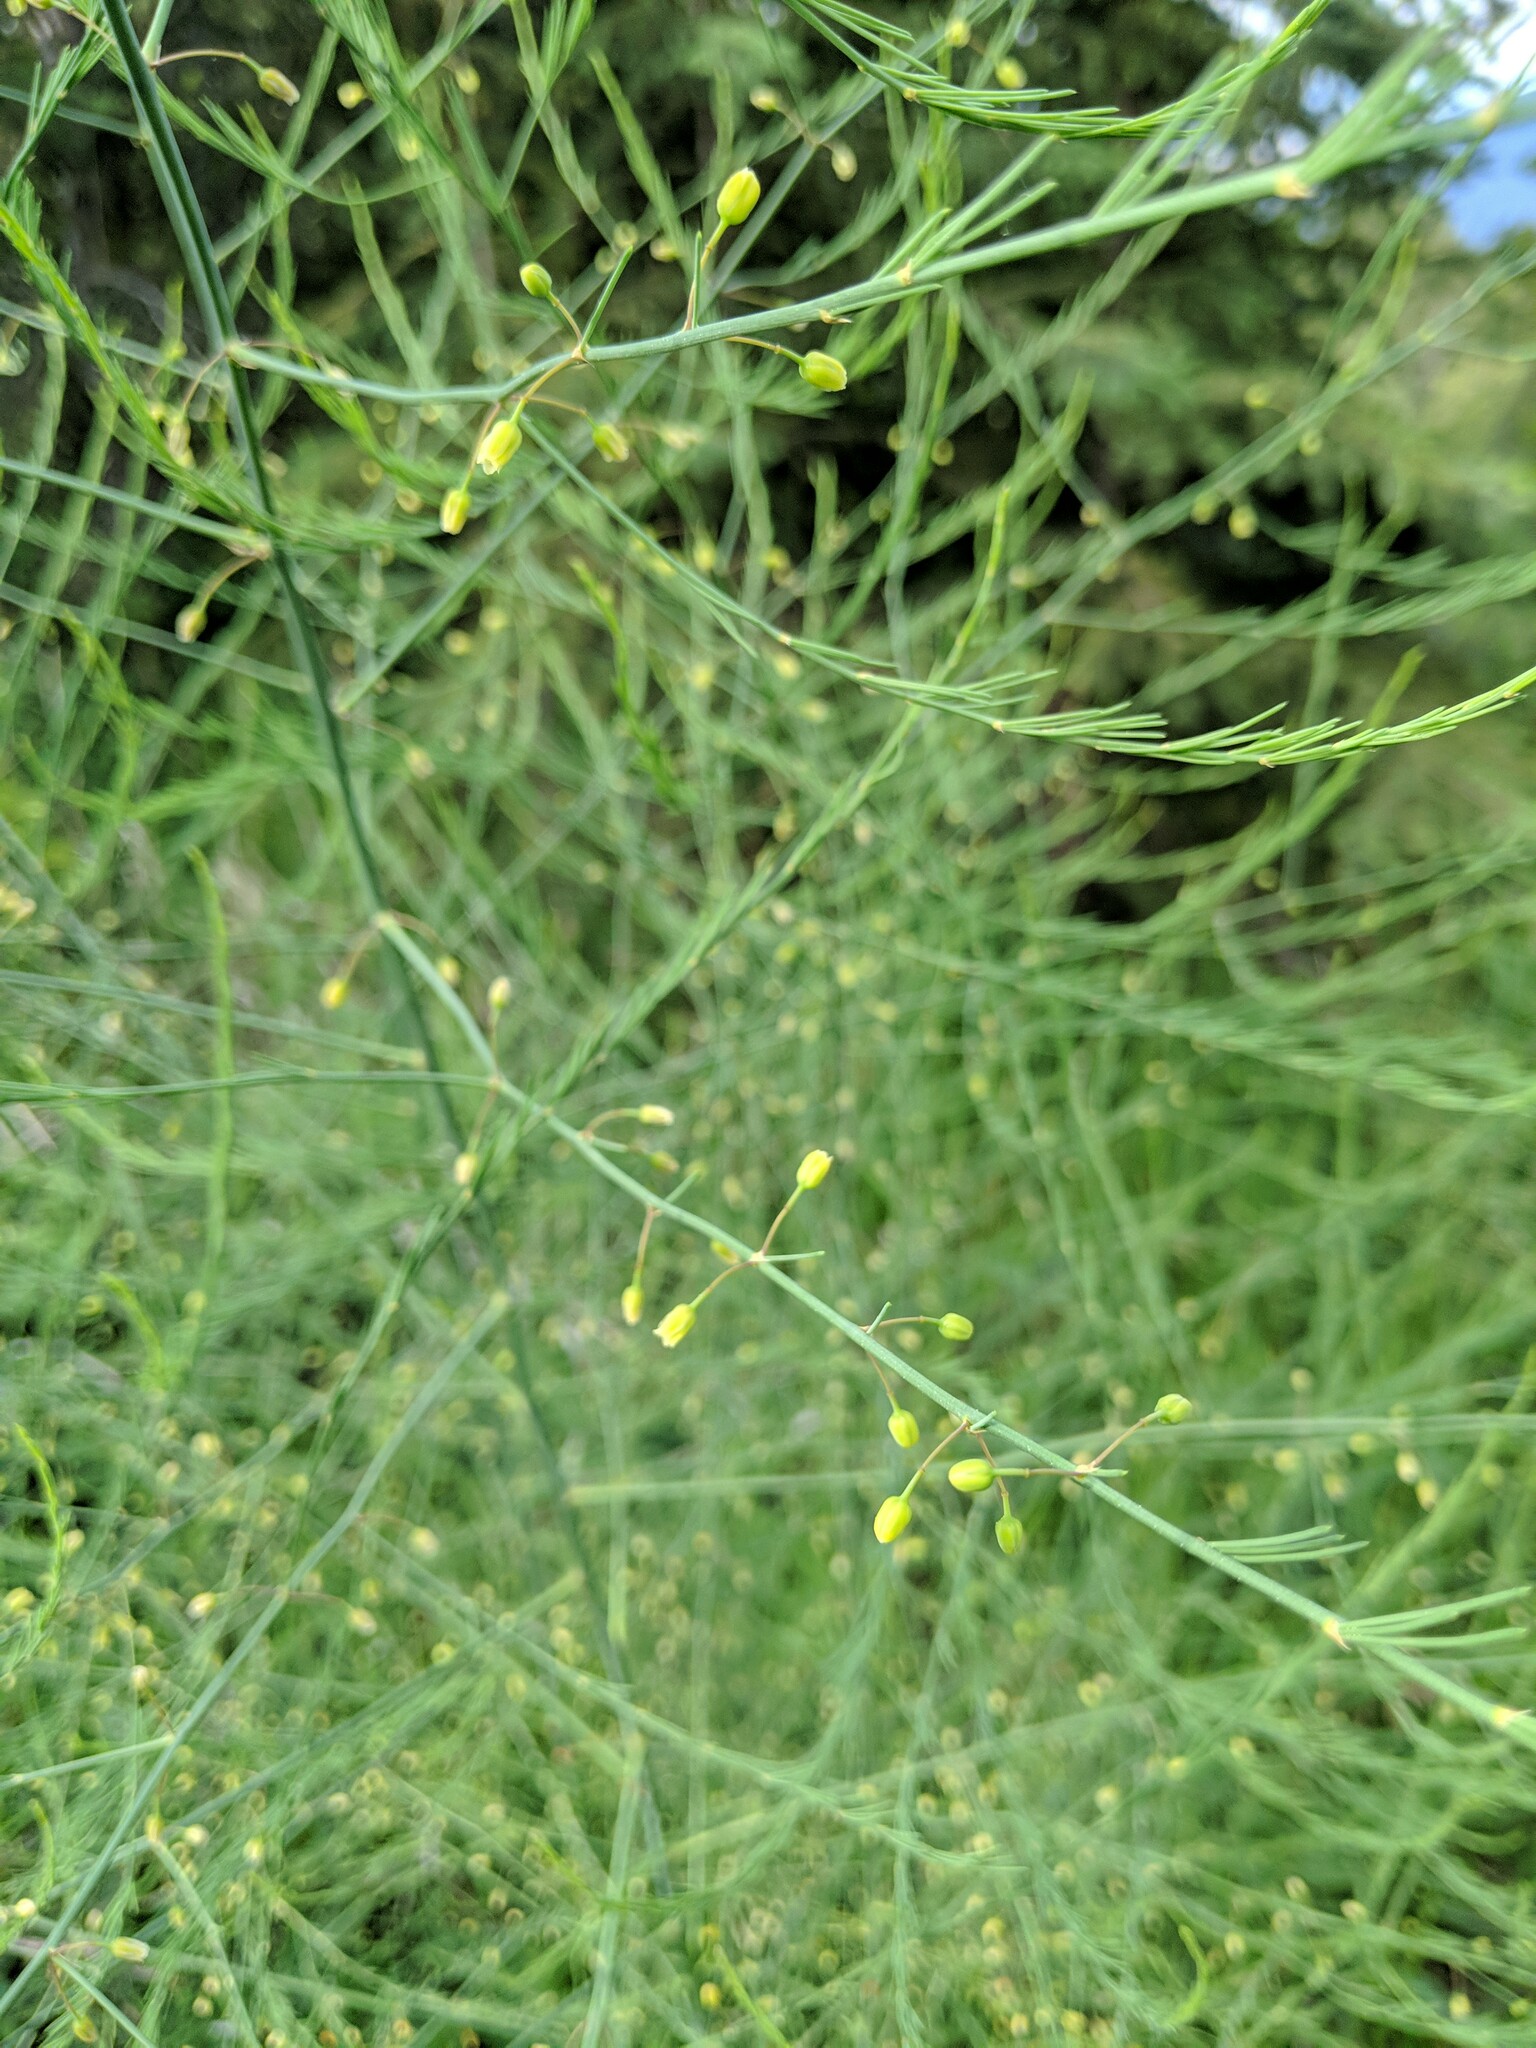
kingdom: Plantae
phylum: Tracheophyta
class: Liliopsida
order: Asparagales
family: Asparagaceae
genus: Asparagus
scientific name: Asparagus officinalis
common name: Garden asparagus
